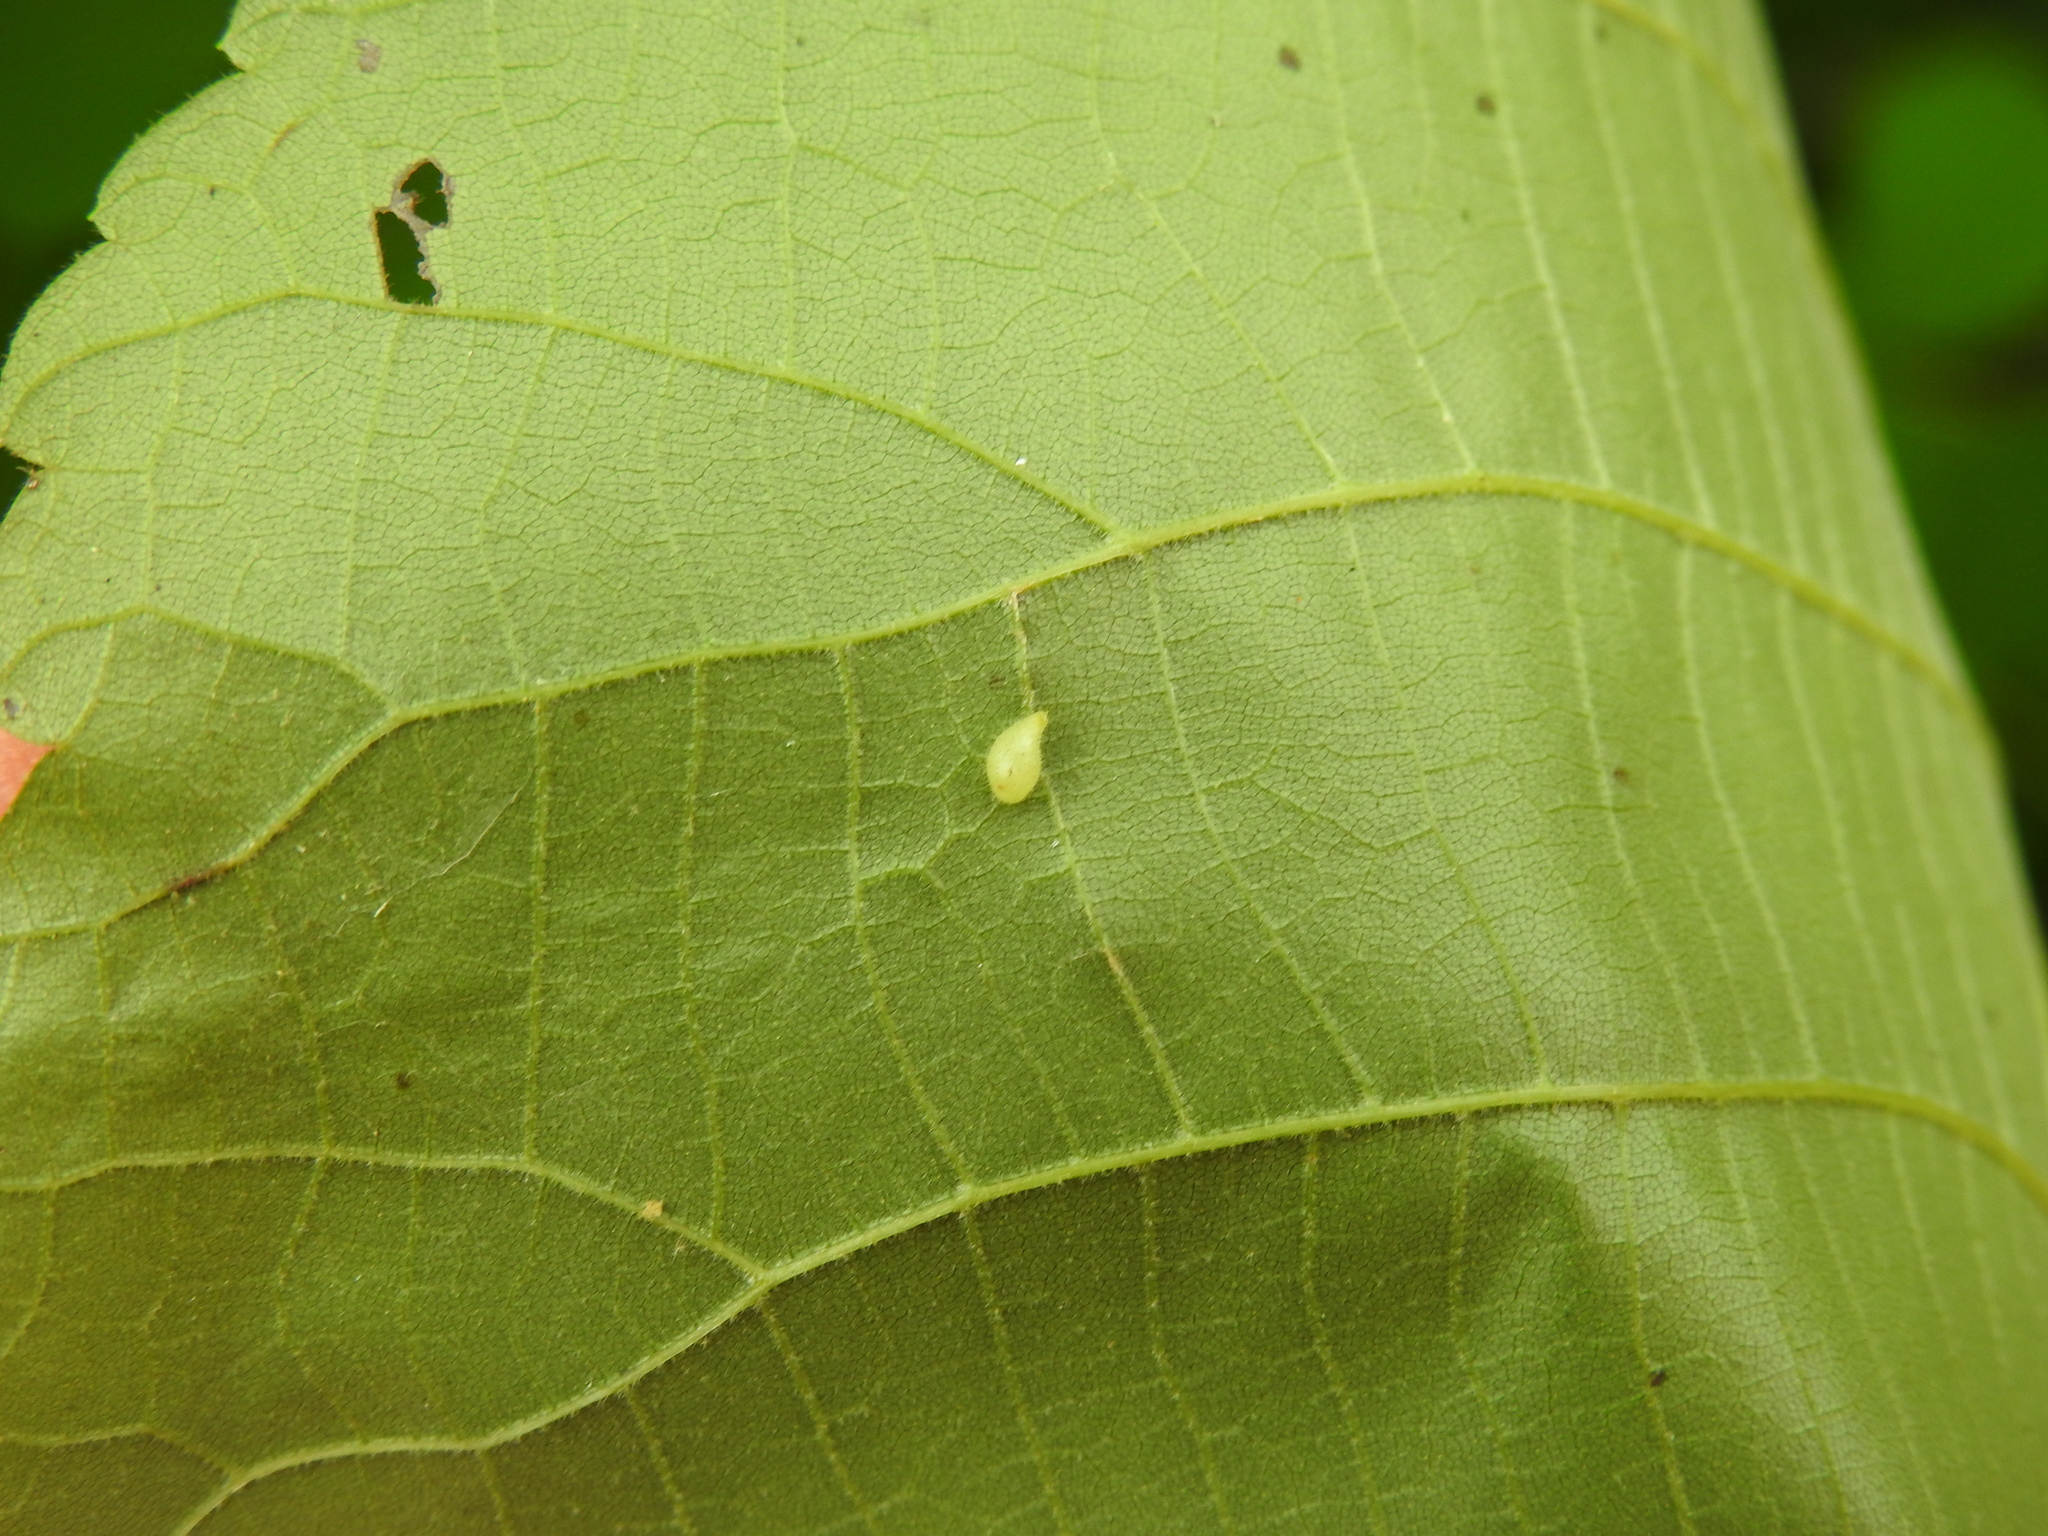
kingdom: Animalia
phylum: Arthropoda
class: Insecta
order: Diptera
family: Cecidomyiidae
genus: Caryomyia
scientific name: Caryomyia eumaris
